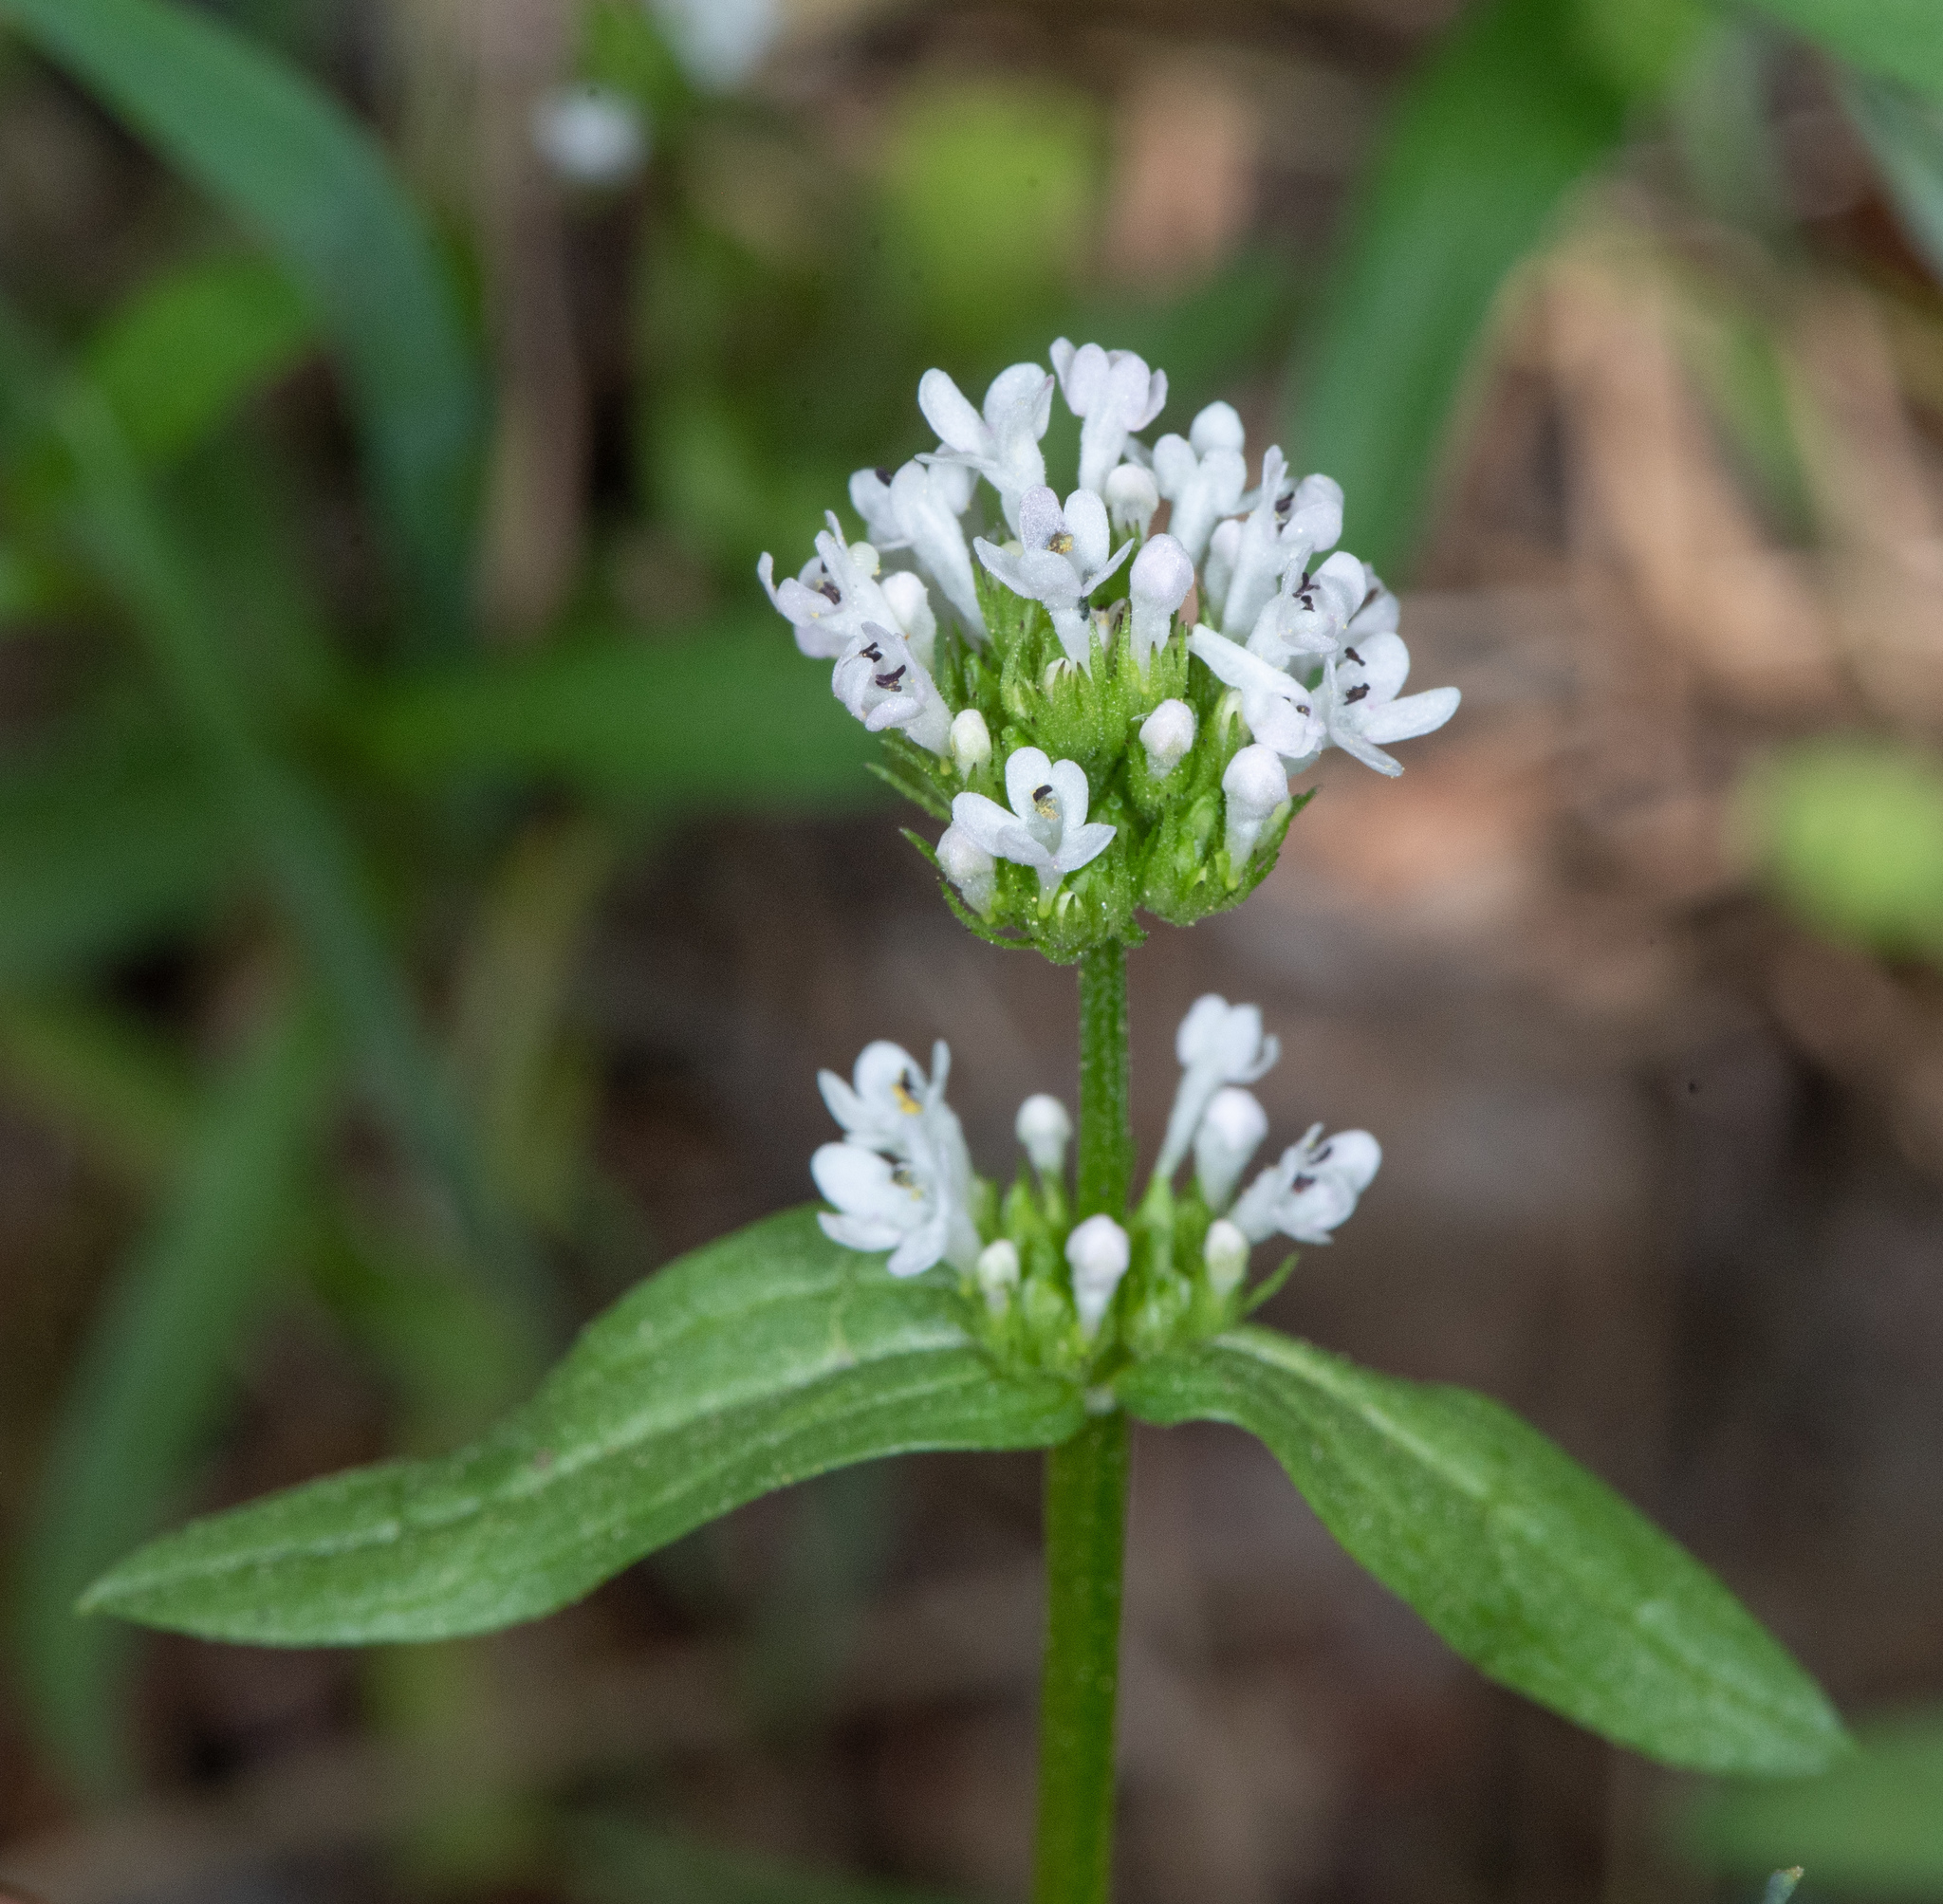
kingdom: Plantae
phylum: Tracheophyta
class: Magnoliopsida
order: Dipsacales
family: Caprifoliaceae
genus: Plectritis
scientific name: Plectritis macroptera
